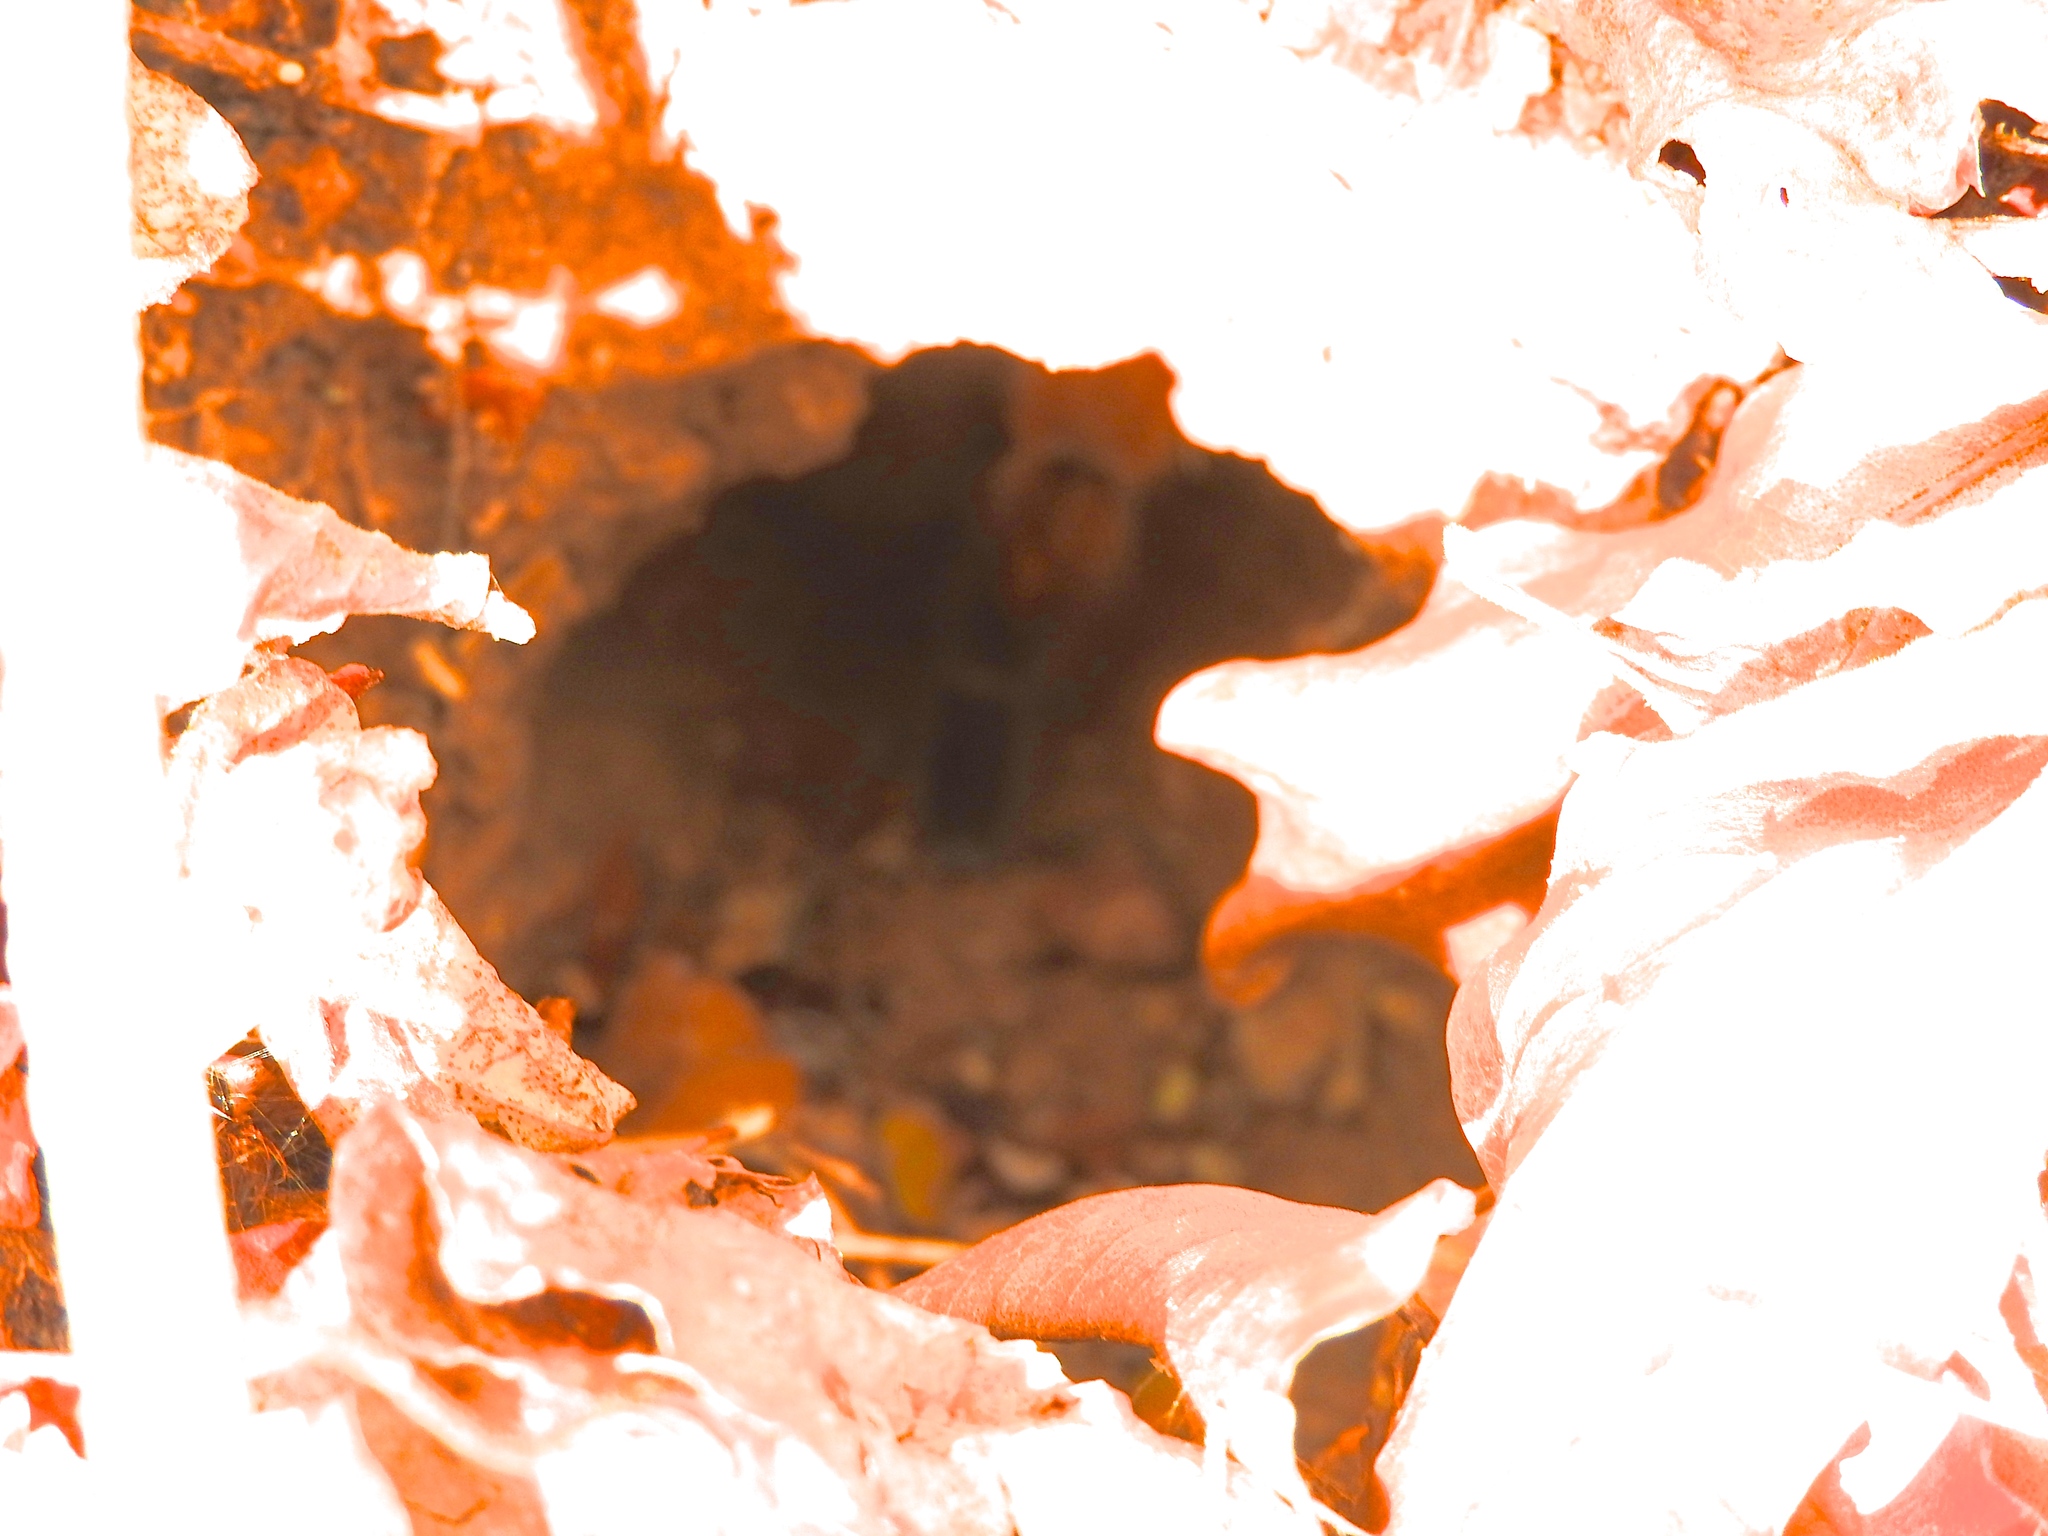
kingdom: Animalia
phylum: Arthropoda
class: Arachnida
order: Araneae
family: Theraphosidae
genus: Brachypelma
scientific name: Brachypelma emilia
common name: Mexican redleg
